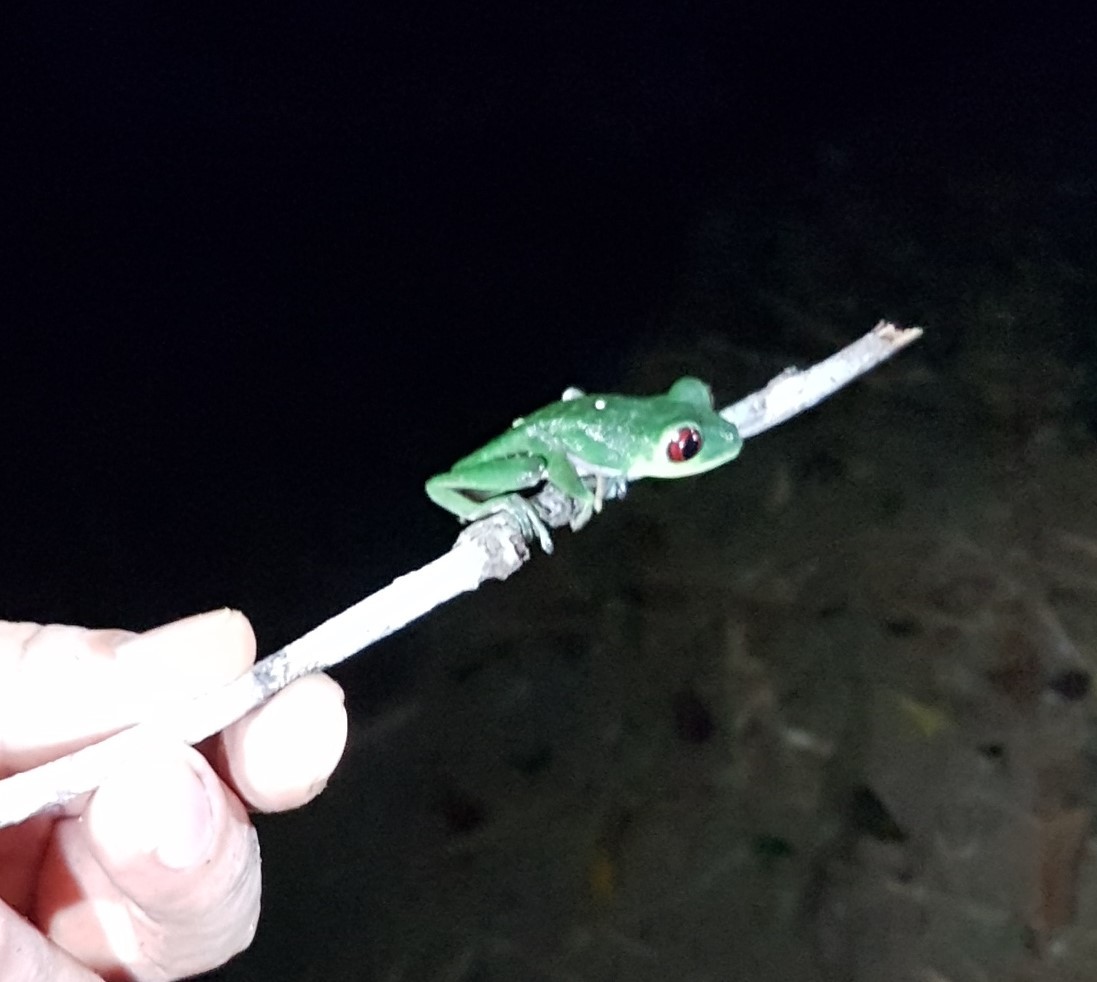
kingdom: Animalia
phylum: Chordata
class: Amphibia
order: Anura
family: Phyllomedusidae
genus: Agalychnis
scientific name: Agalychnis callidryas
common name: Red-eyed treefrog
